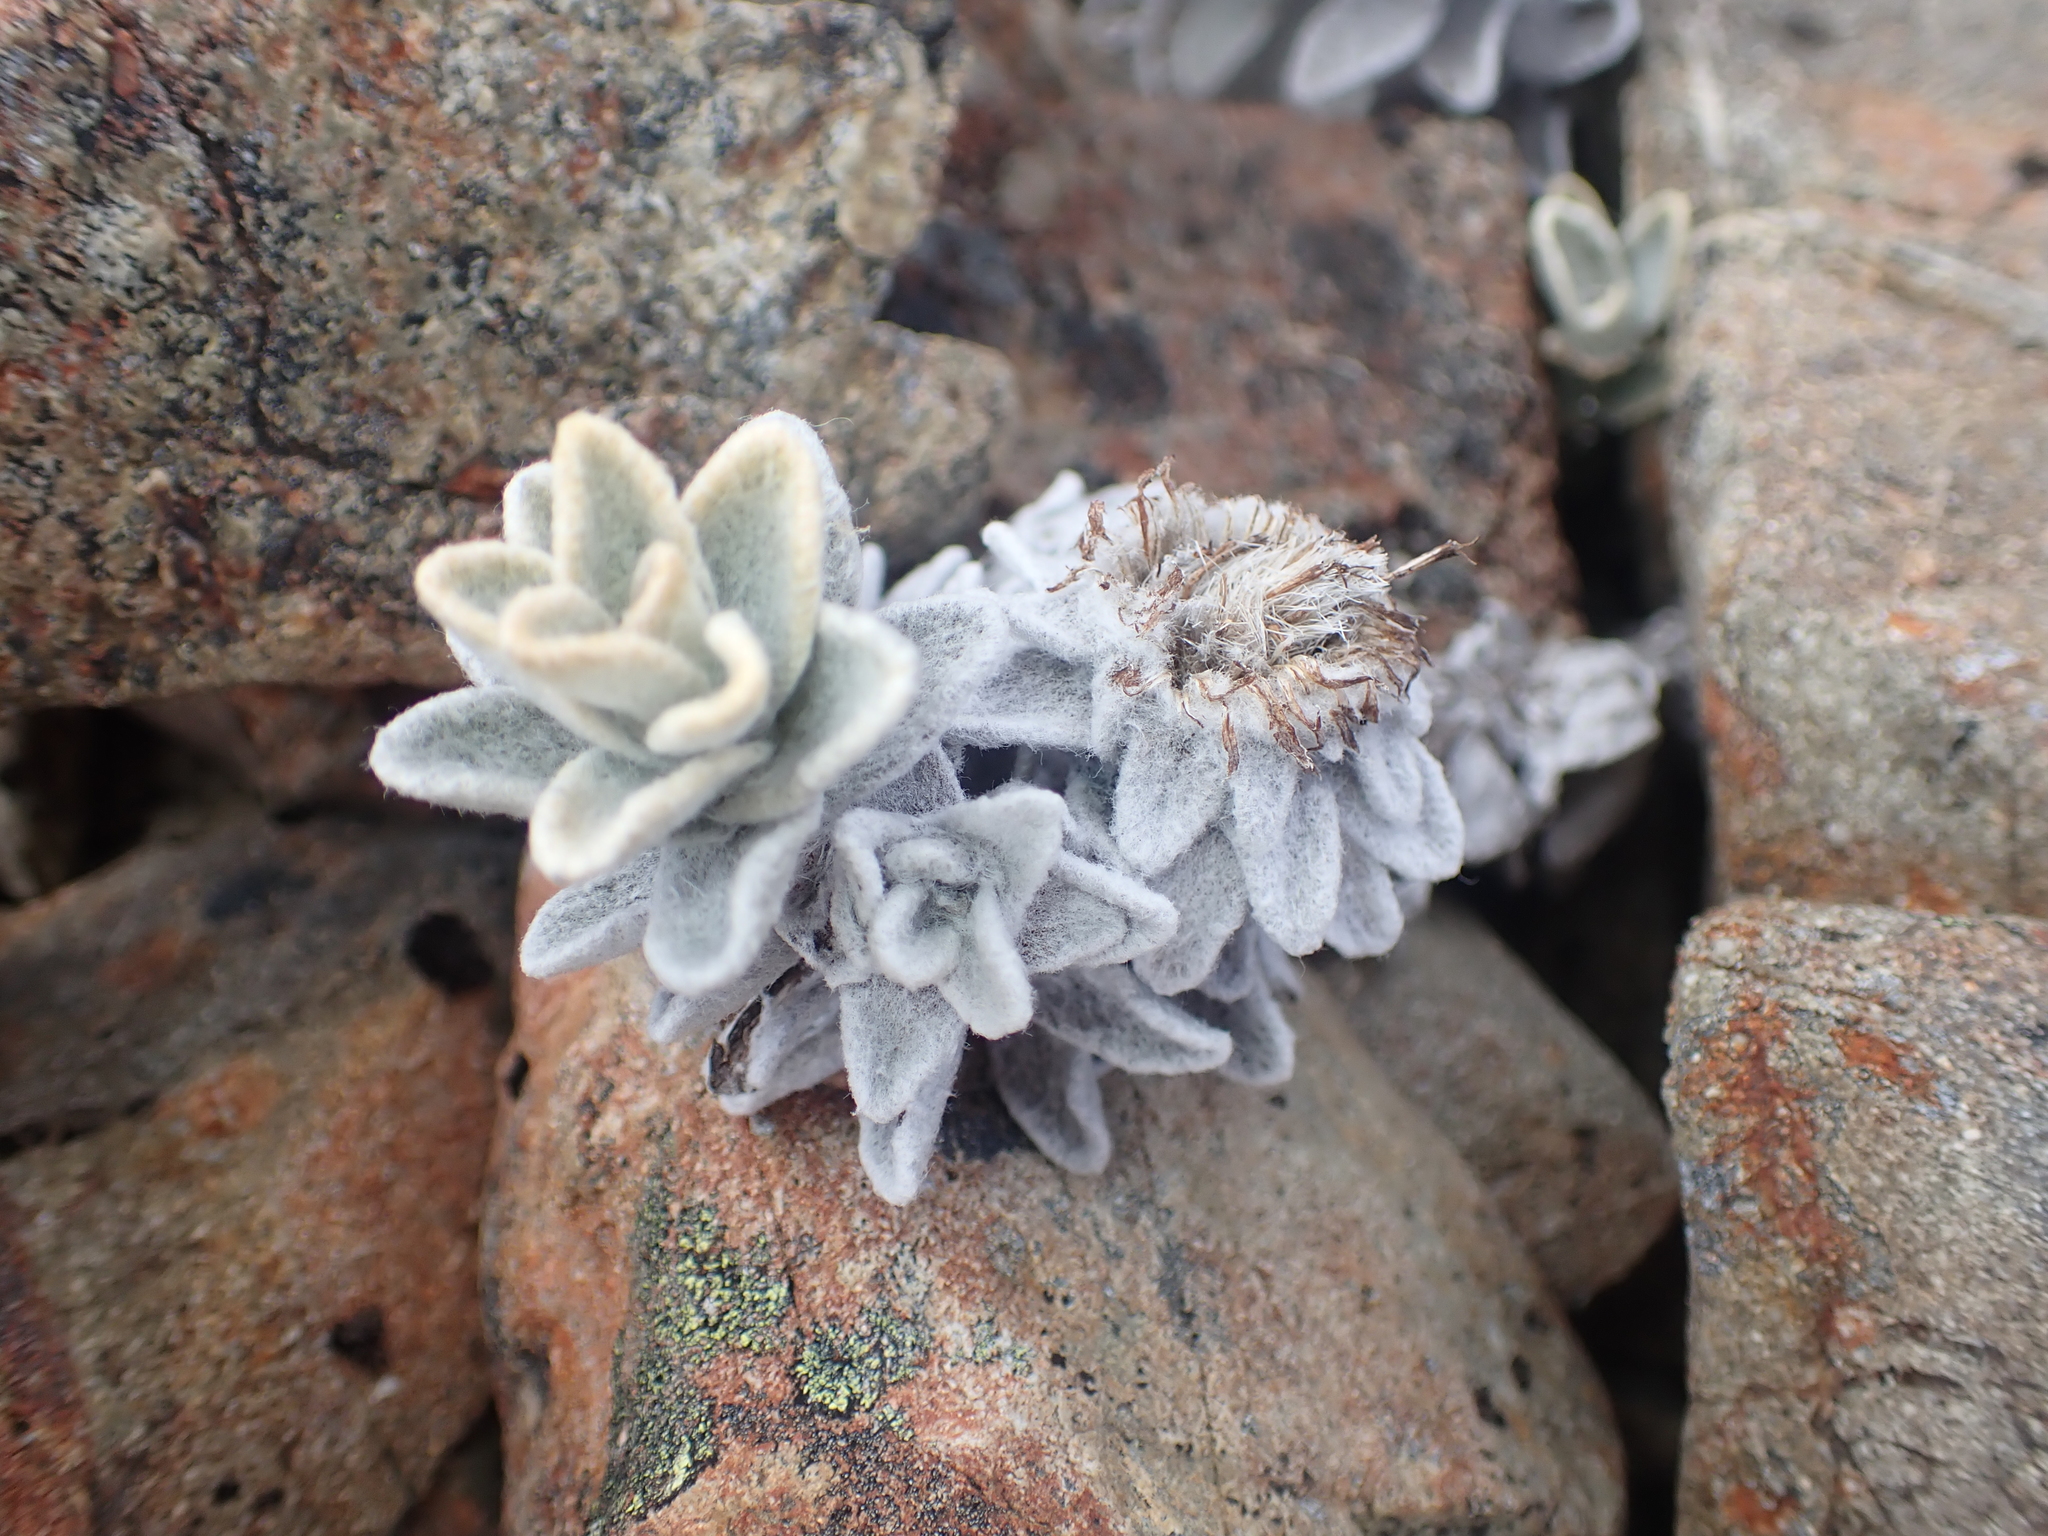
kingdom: Plantae
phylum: Tracheophyta
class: Magnoliopsida
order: Asterales
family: Asteraceae
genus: Haastia
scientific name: Haastia sinclairii
